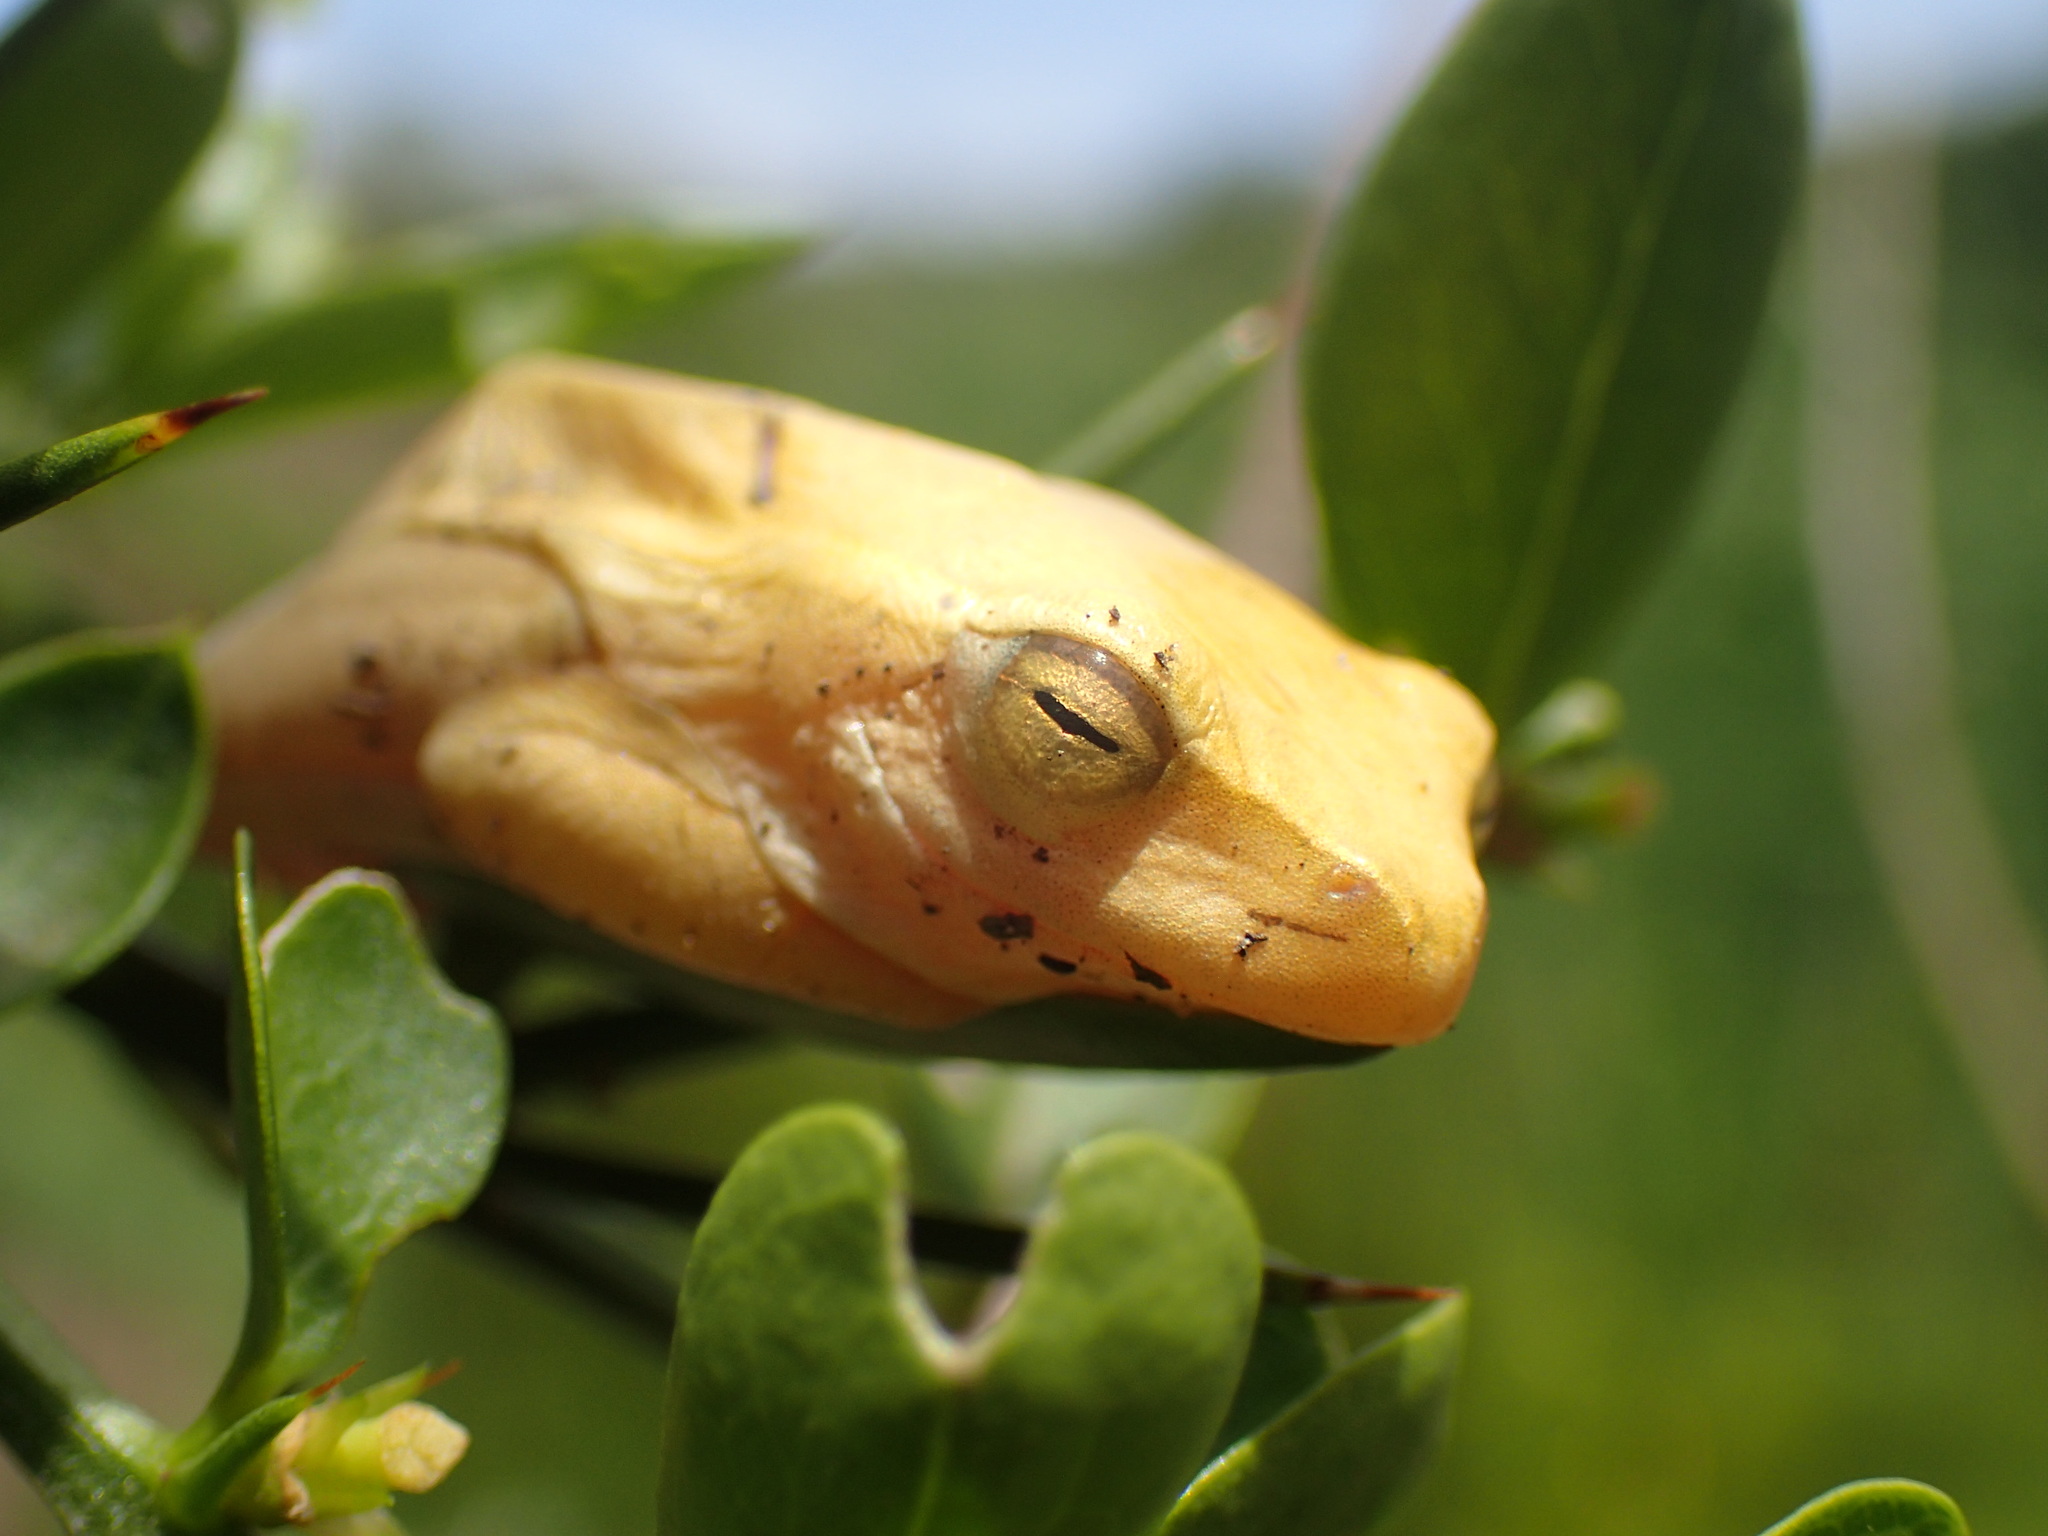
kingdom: Animalia
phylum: Chordata
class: Amphibia
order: Anura
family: Hyperoliidae
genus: Hyperolius
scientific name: Hyperolius semidiscus
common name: Yellow-striped reed frog
